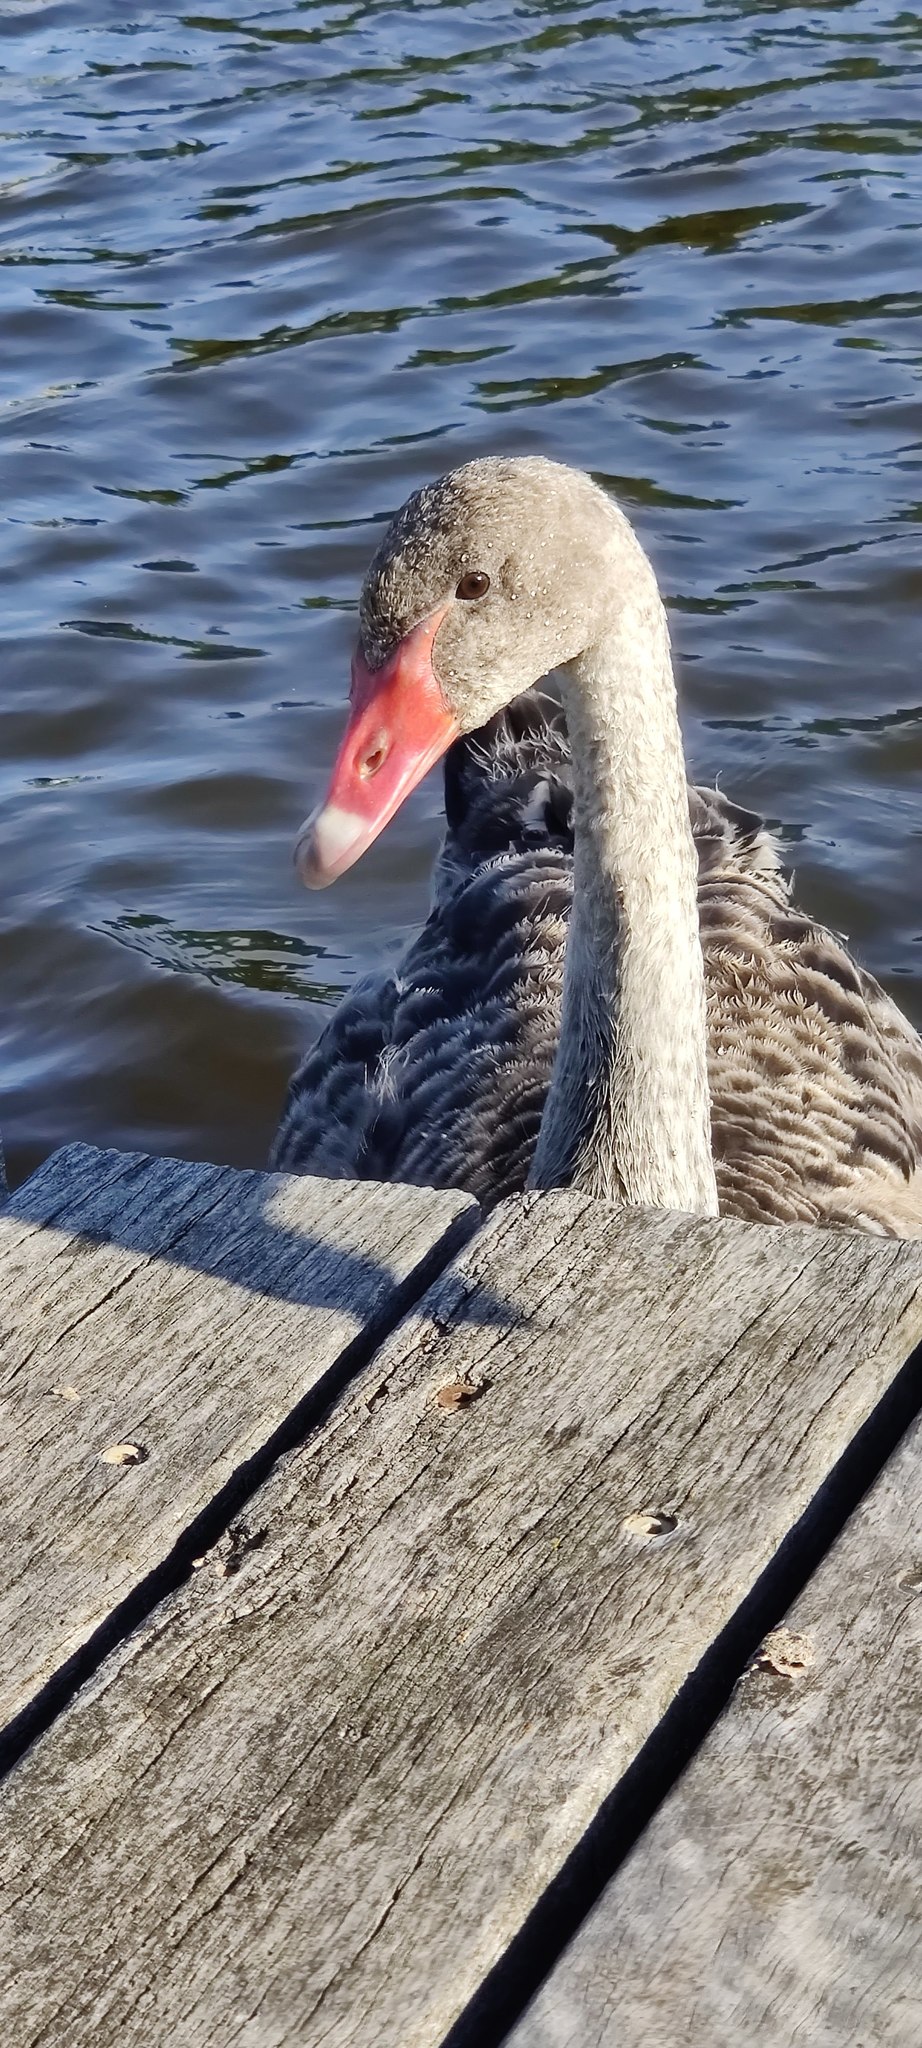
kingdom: Animalia
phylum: Chordata
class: Aves
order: Anseriformes
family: Anatidae
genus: Cygnus
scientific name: Cygnus atratus
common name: Black swan
